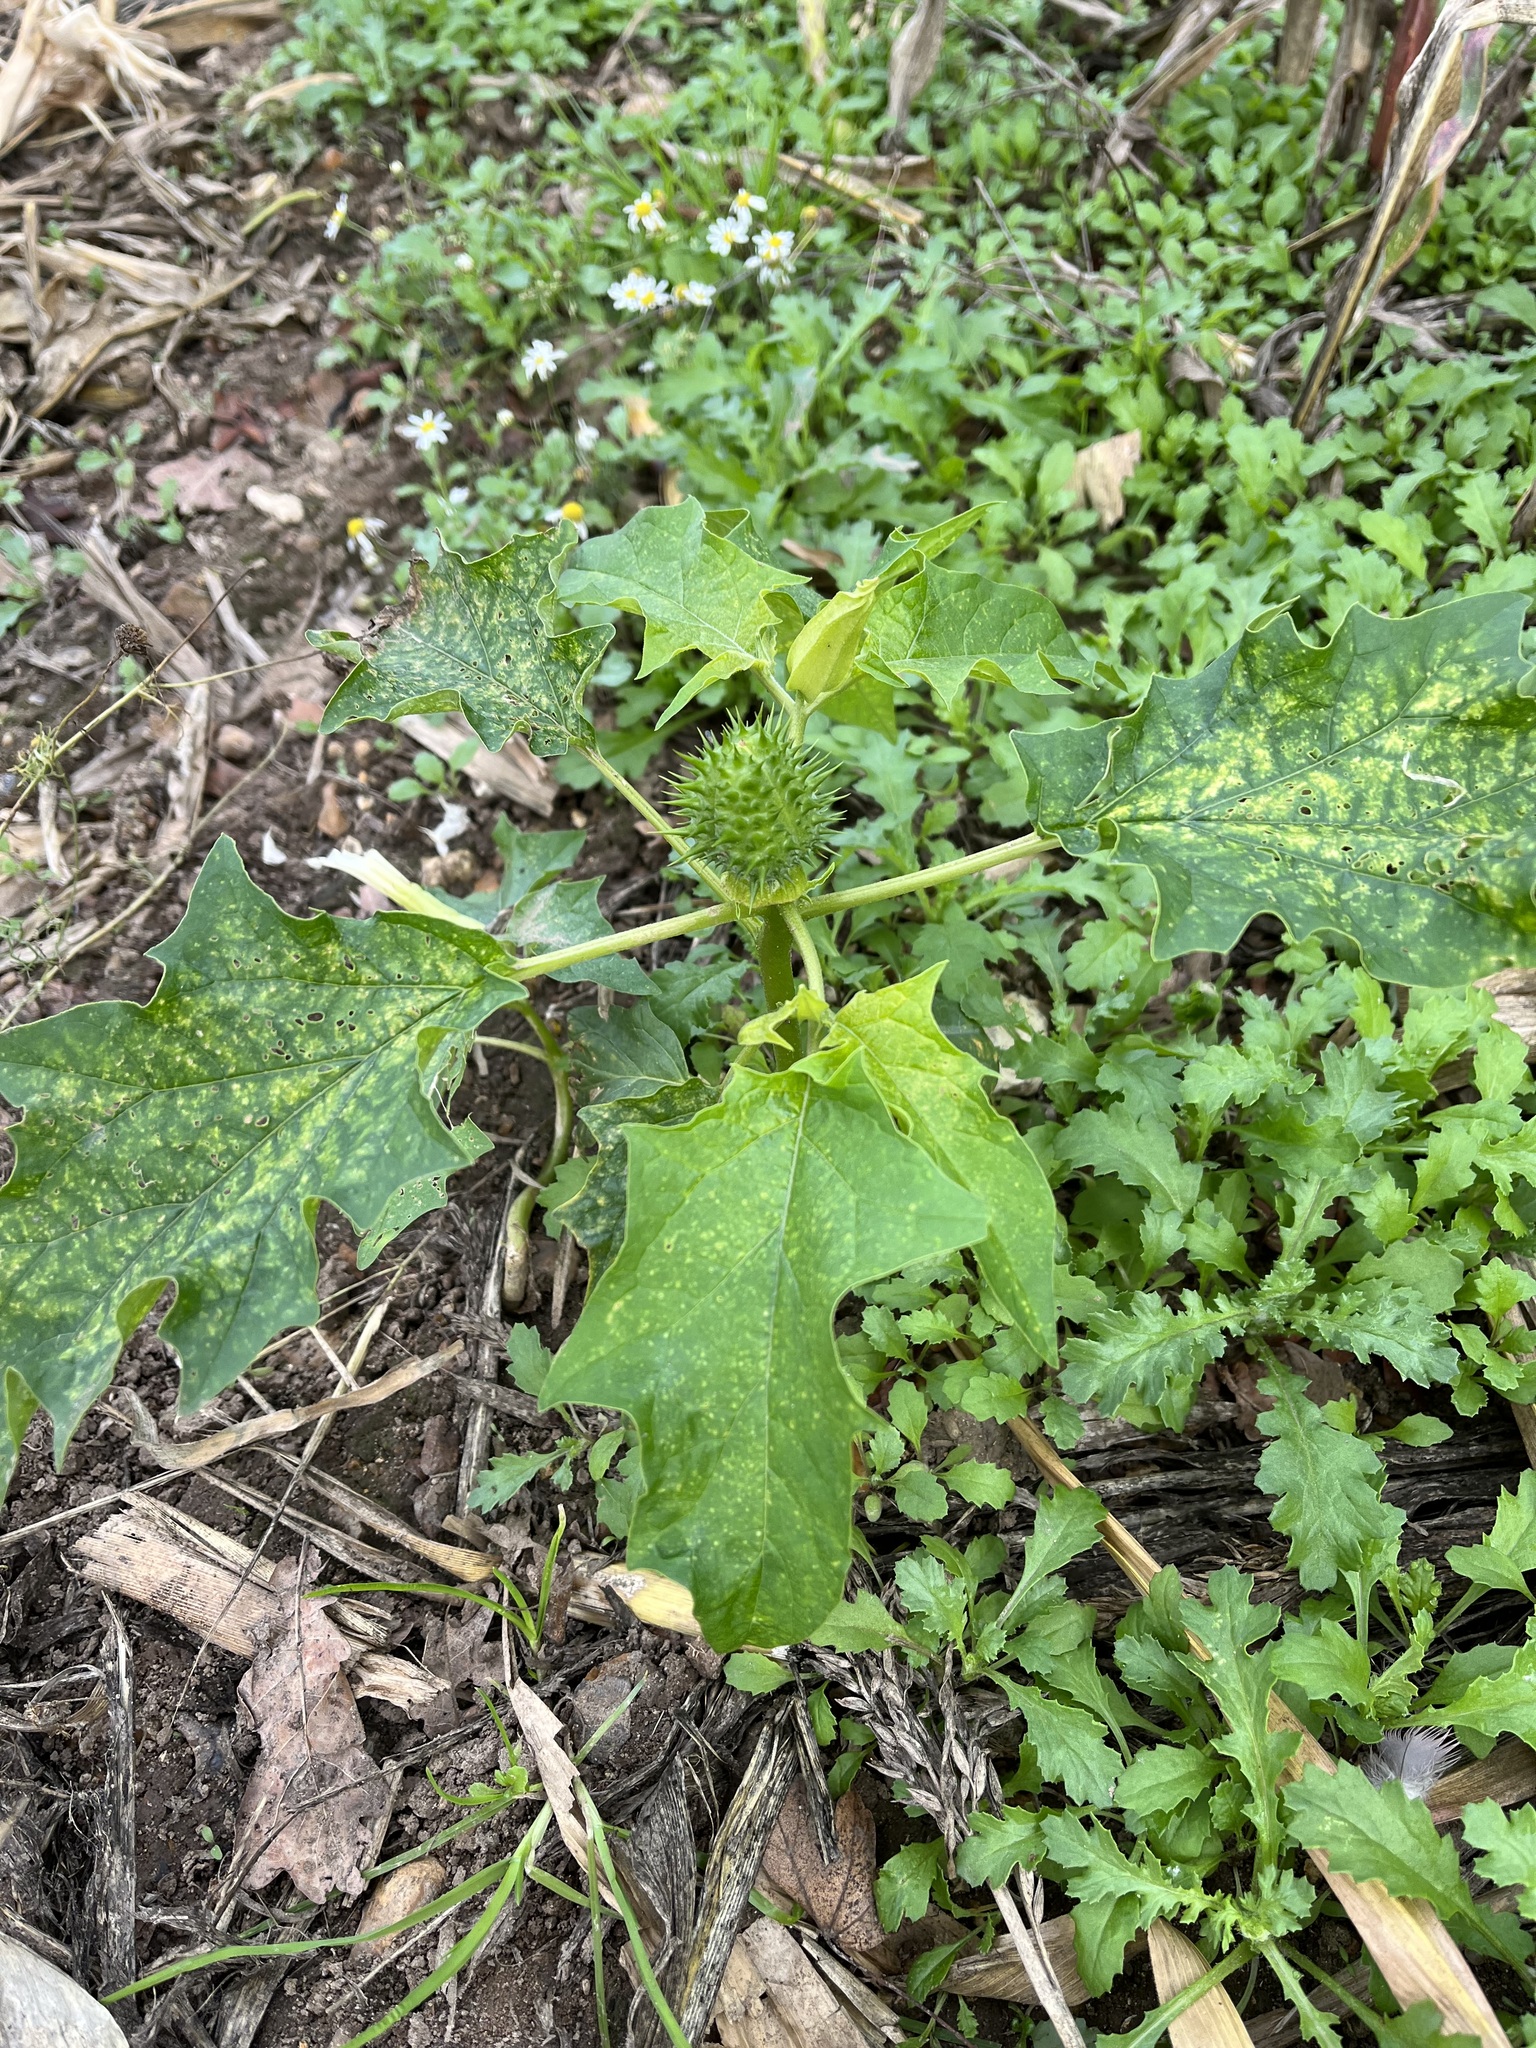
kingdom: Plantae
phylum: Tracheophyta
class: Magnoliopsida
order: Solanales
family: Solanaceae
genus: Datura
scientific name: Datura stramonium
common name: Thorn-apple
